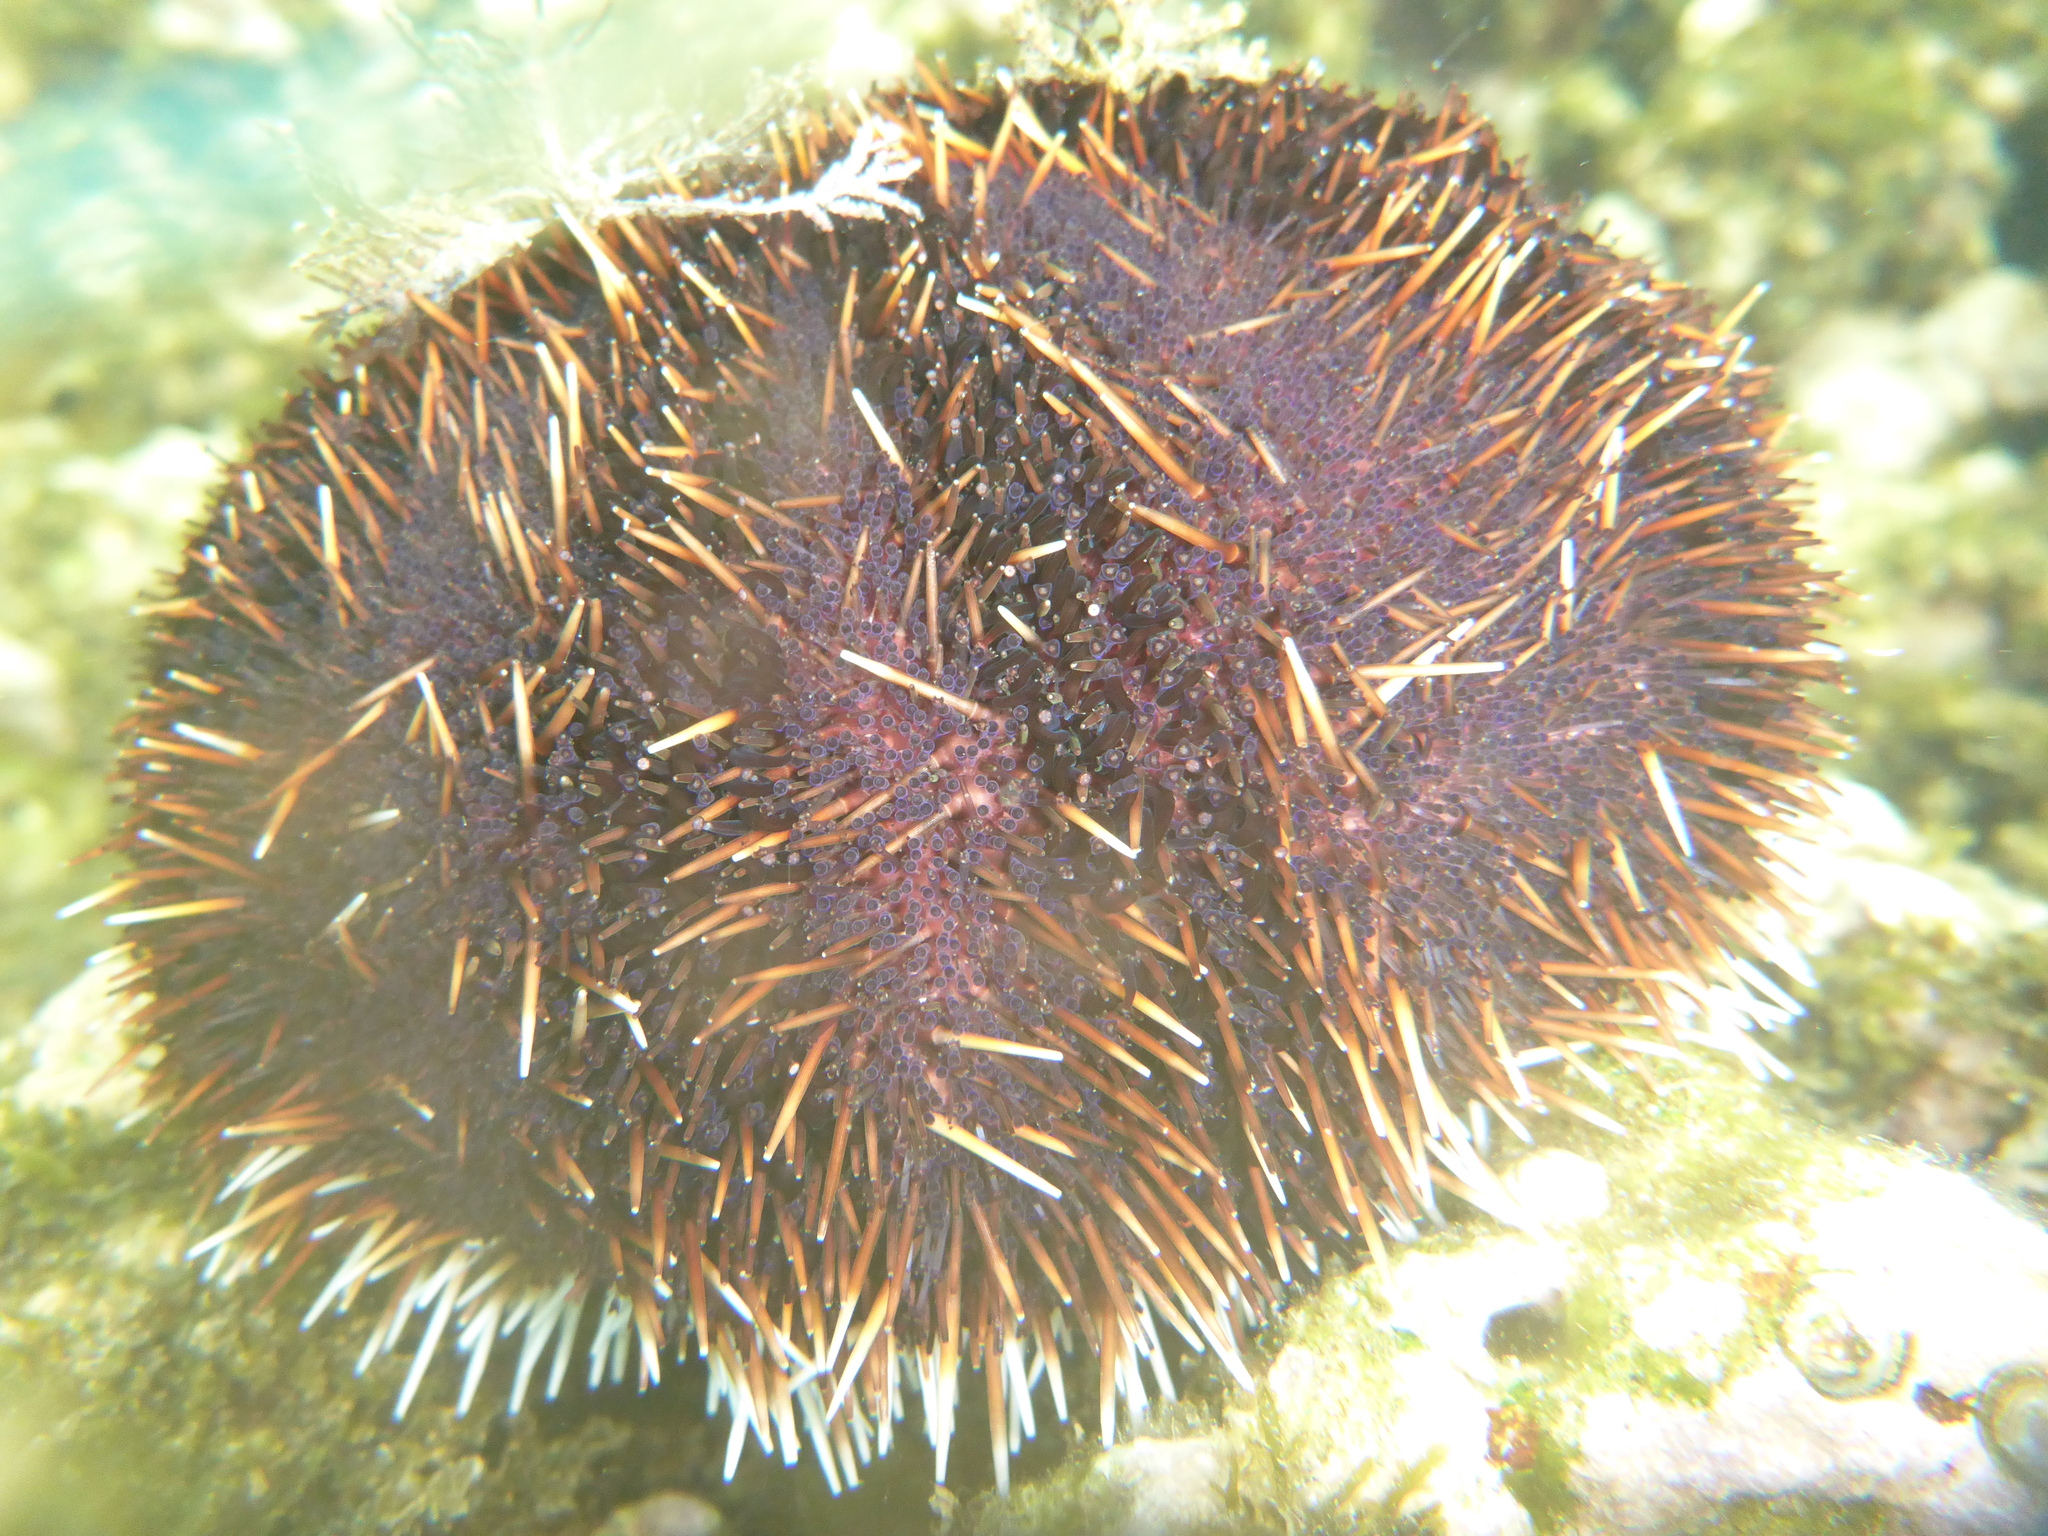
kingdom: Animalia
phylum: Echinodermata
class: Echinoidea
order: Camarodonta
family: Toxopneustidae
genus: Tripneustes
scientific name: Tripneustes gratilla
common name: Bischofsmützenseeigel
